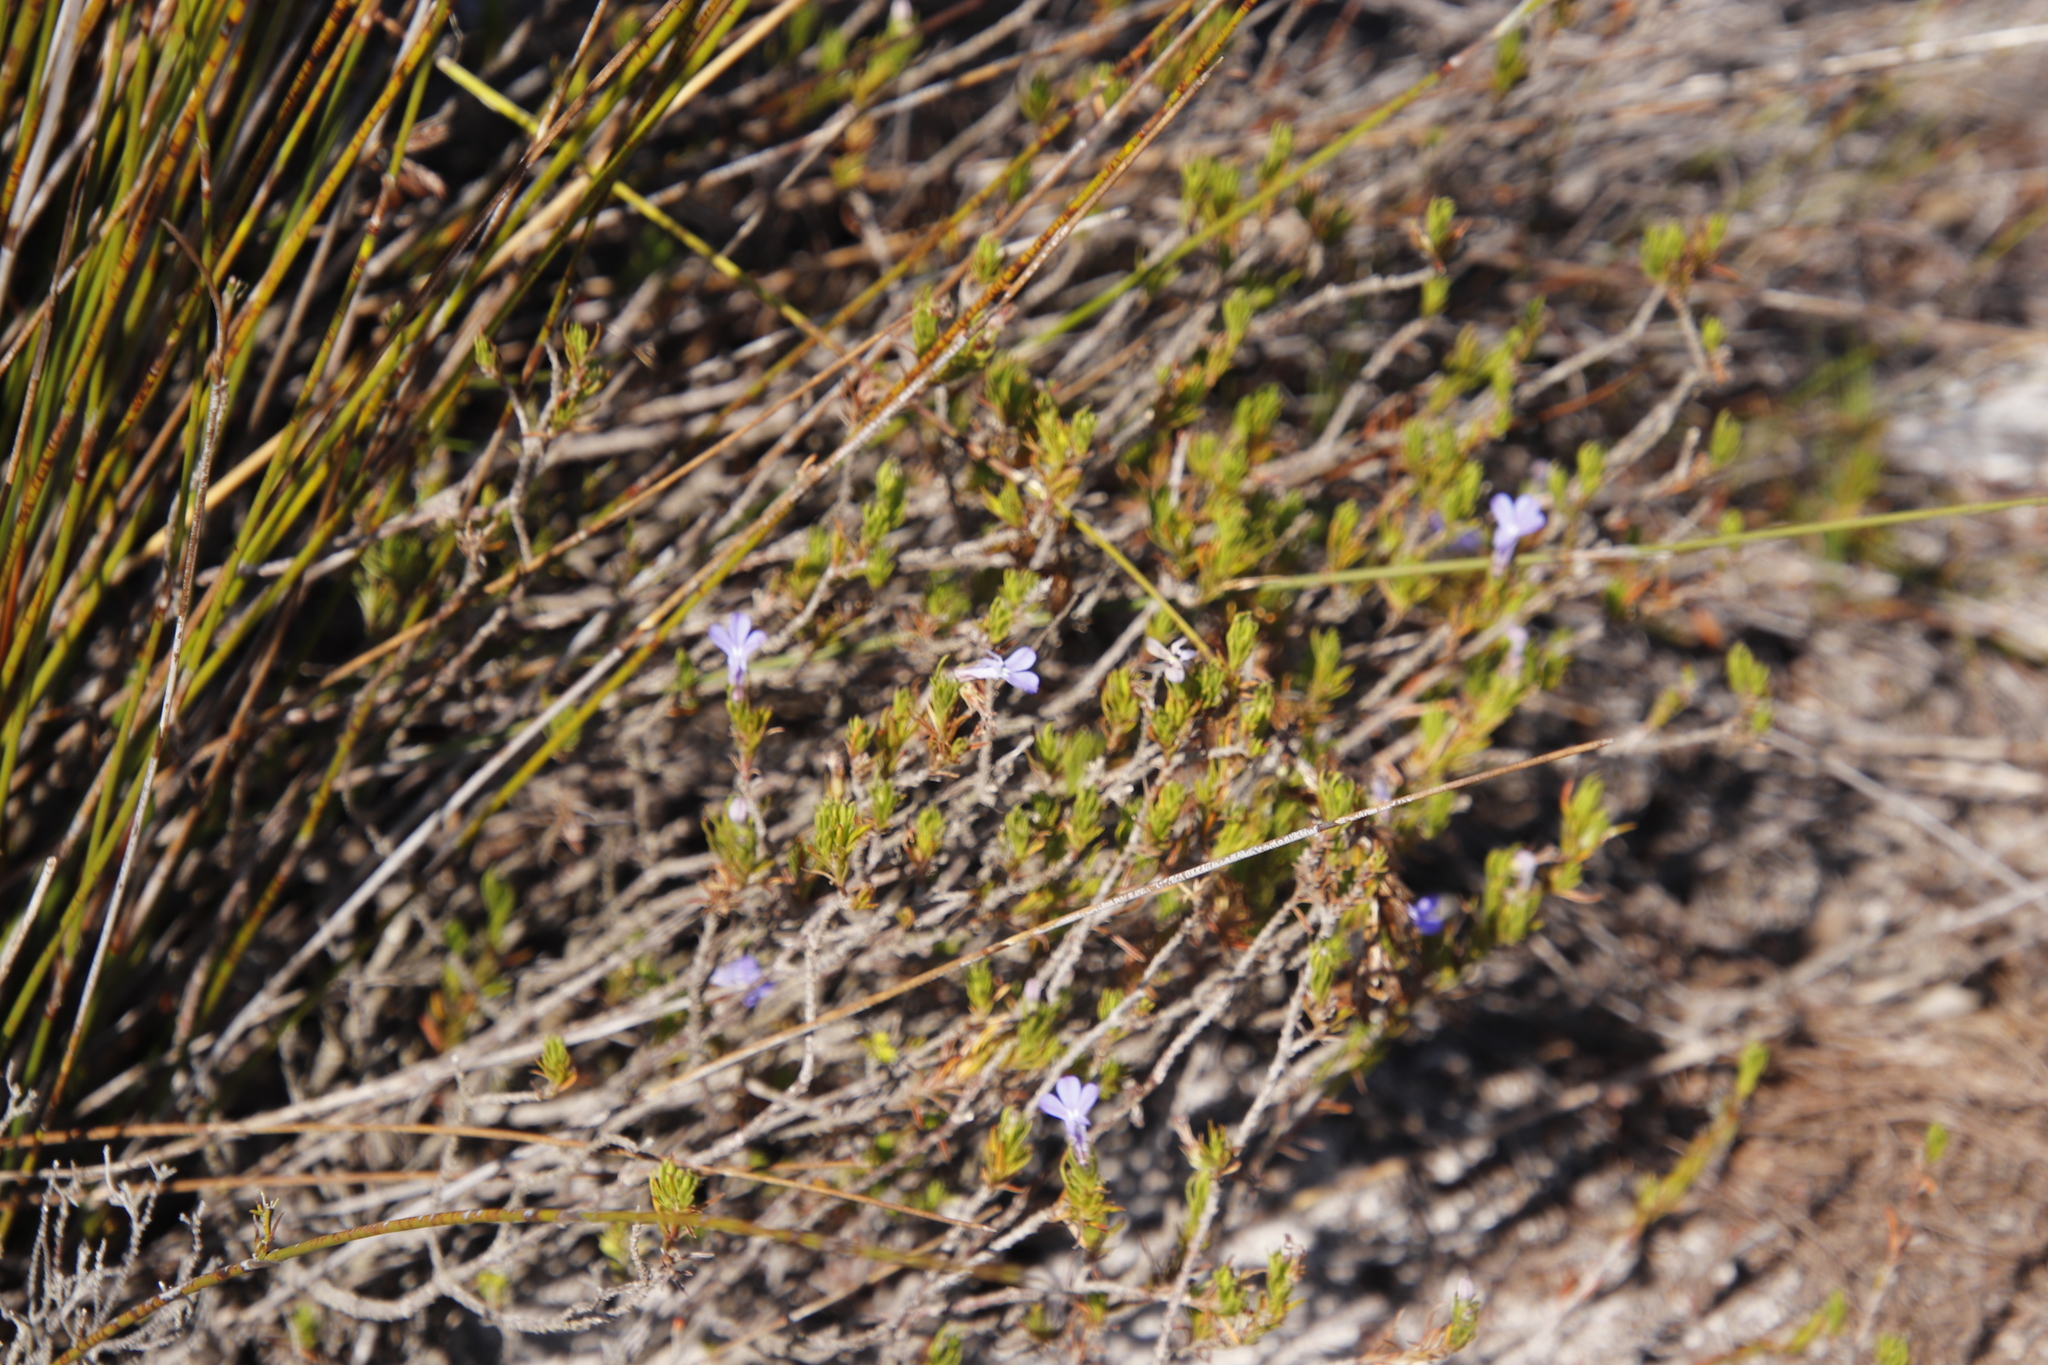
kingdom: Plantae
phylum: Tracheophyta
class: Magnoliopsida
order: Asterales
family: Campanulaceae
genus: Lobelia
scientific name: Lobelia pinifolia
